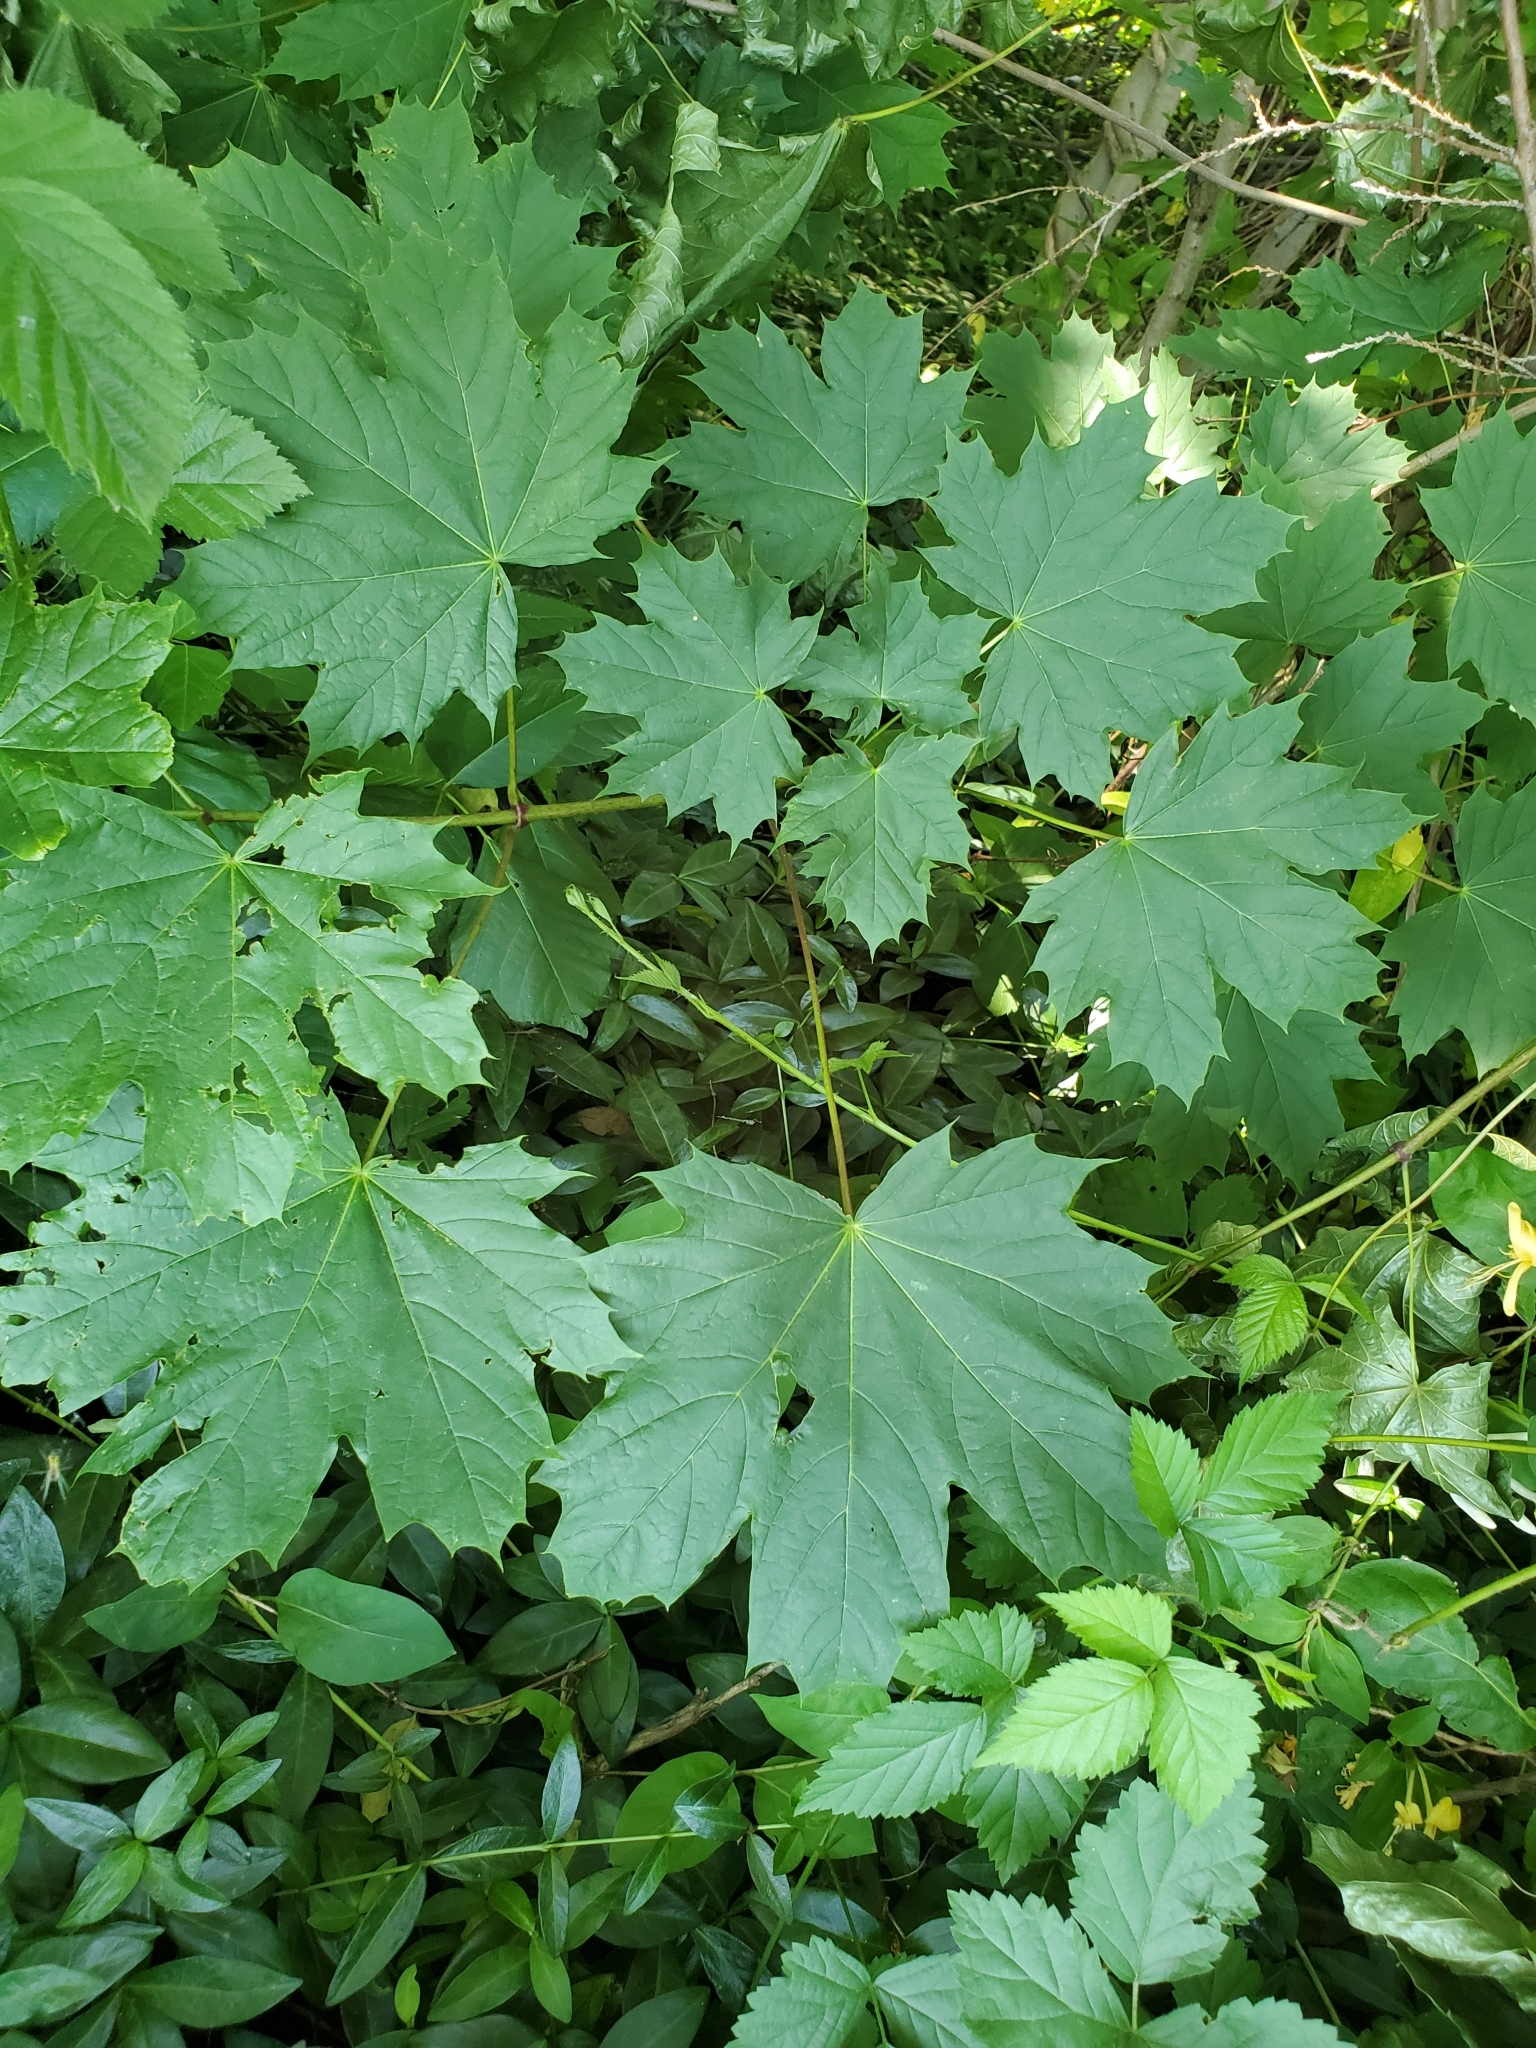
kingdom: Plantae
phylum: Tracheophyta
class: Magnoliopsida
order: Sapindales
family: Sapindaceae
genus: Acer
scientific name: Acer platanoides
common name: Norway maple
